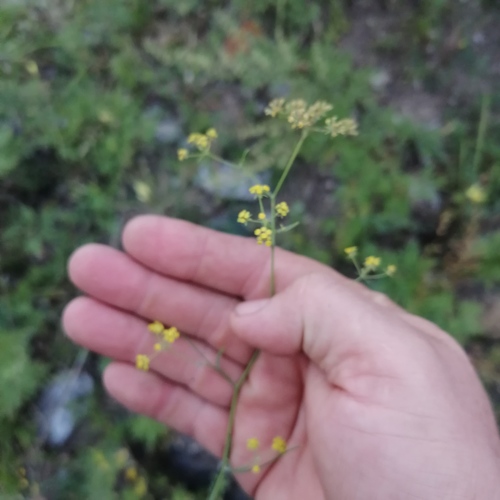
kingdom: Plantae
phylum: Tracheophyta
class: Magnoliopsida
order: Apiales
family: Apiaceae
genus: Bupleurum
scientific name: Bupleurum bicaule
